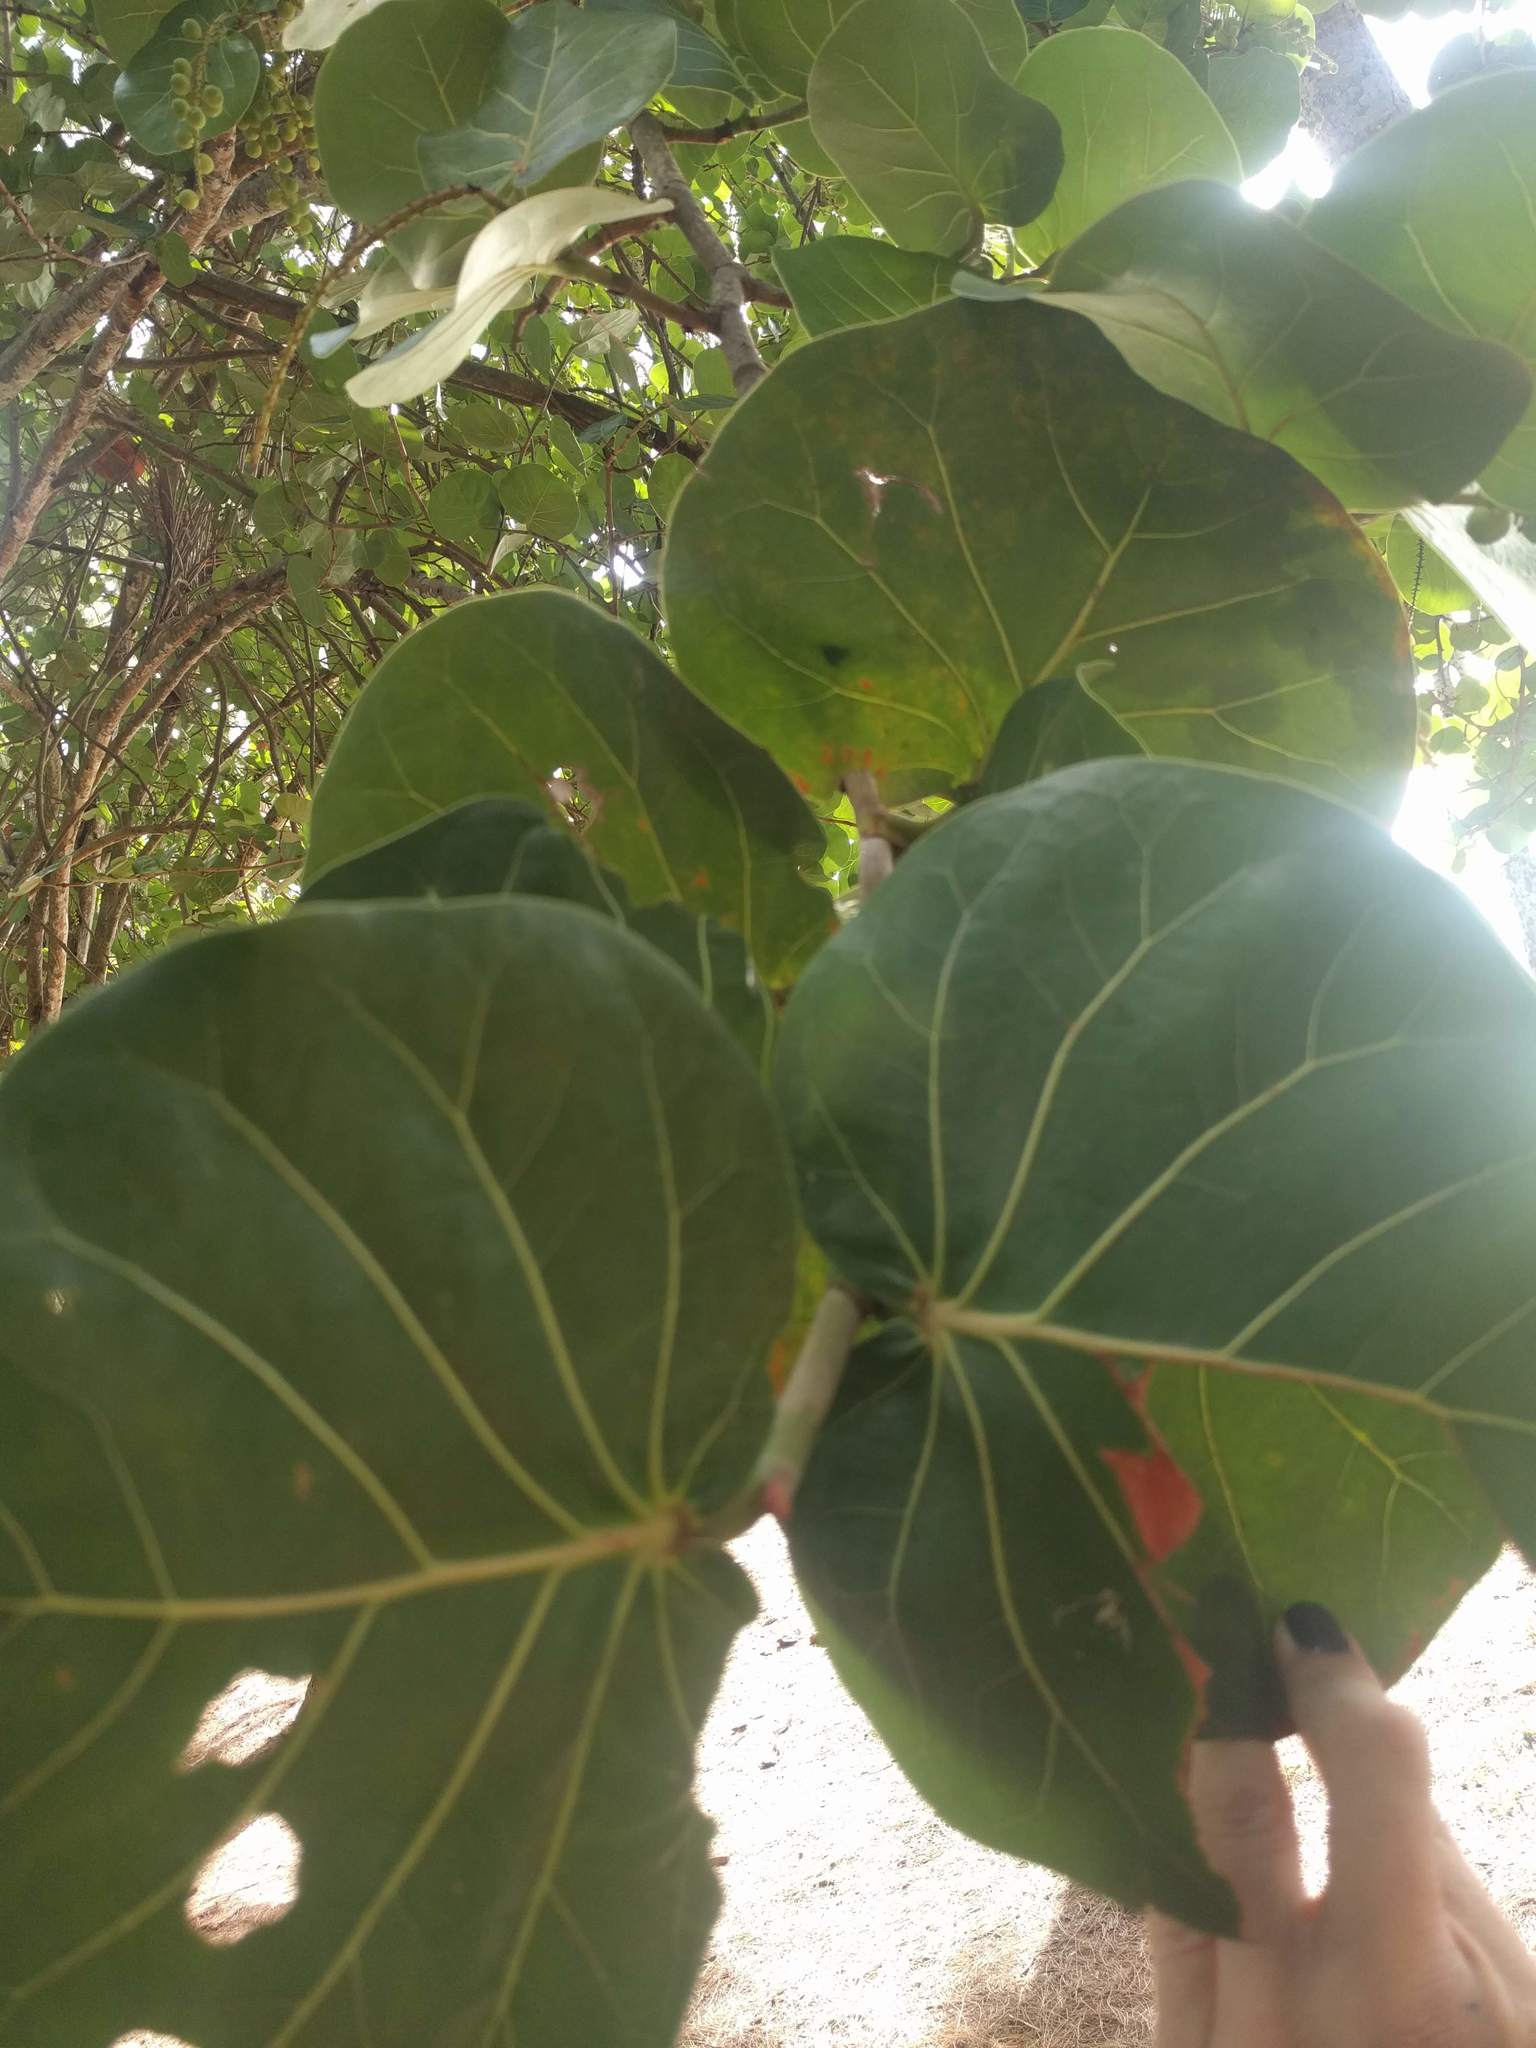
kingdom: Plantae
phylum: Tracheophyta
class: Magnoliopsida
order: Caryophyllales
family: Polygonaceae
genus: Coccoloba
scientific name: Coccoloba uvifera
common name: Seagrape
